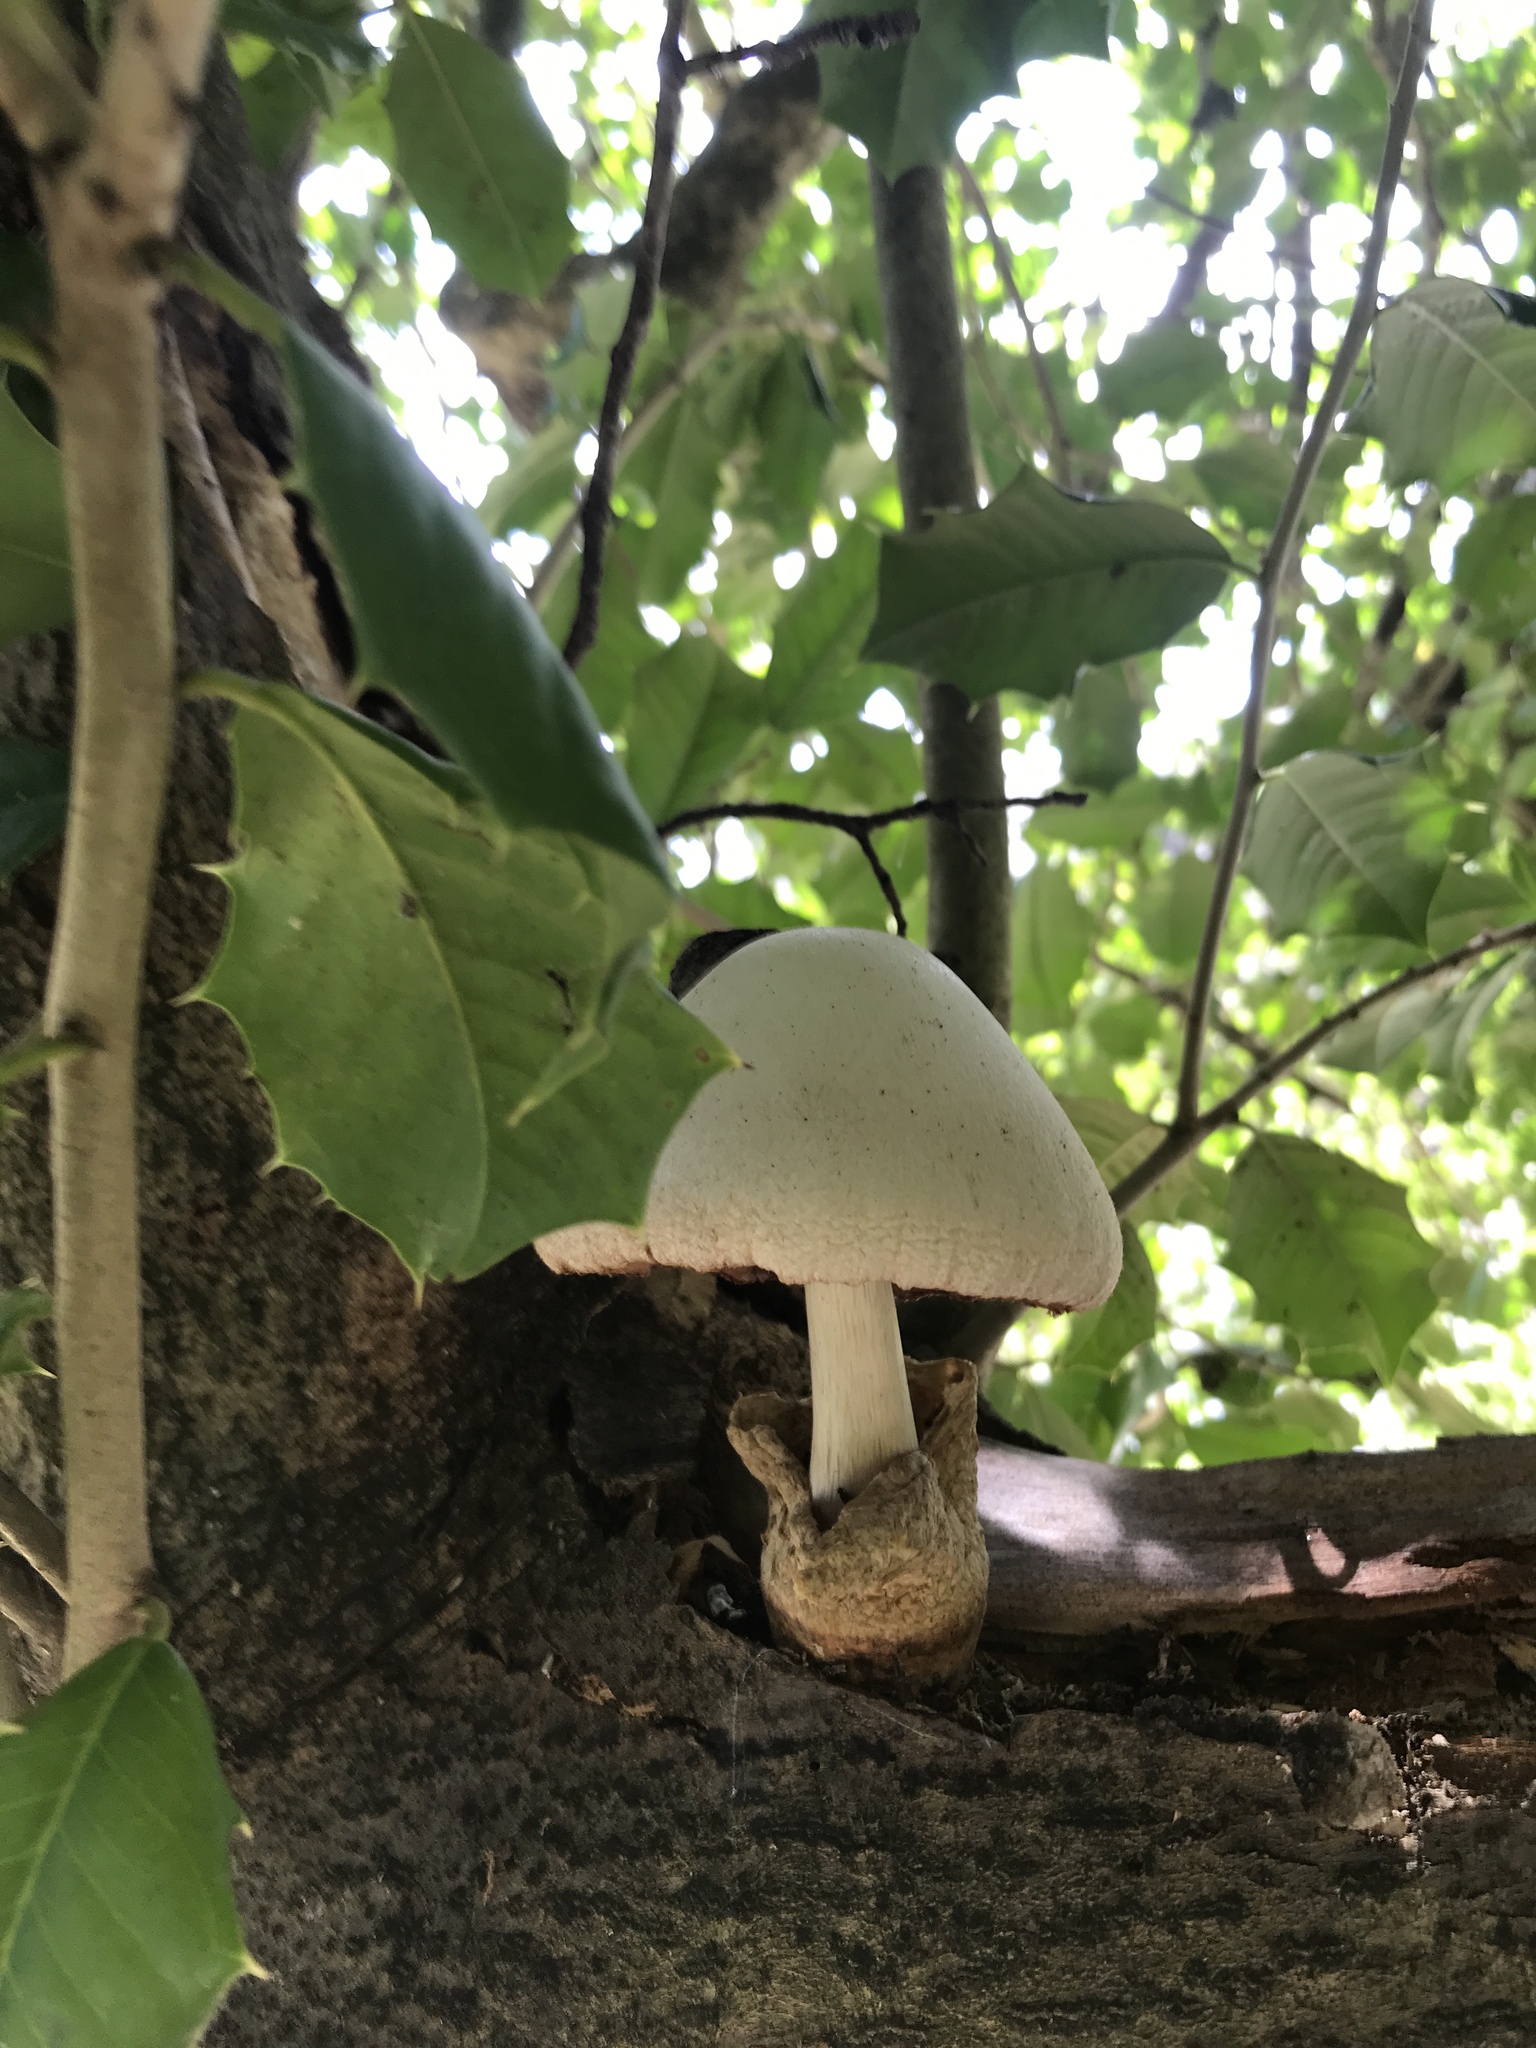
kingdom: Fungi
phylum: Basidiomycota
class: Agaricomycetes
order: Agaricales
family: Pluteaceae
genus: Volvariella
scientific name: Volvariella bombycina
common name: Silky rosegill
